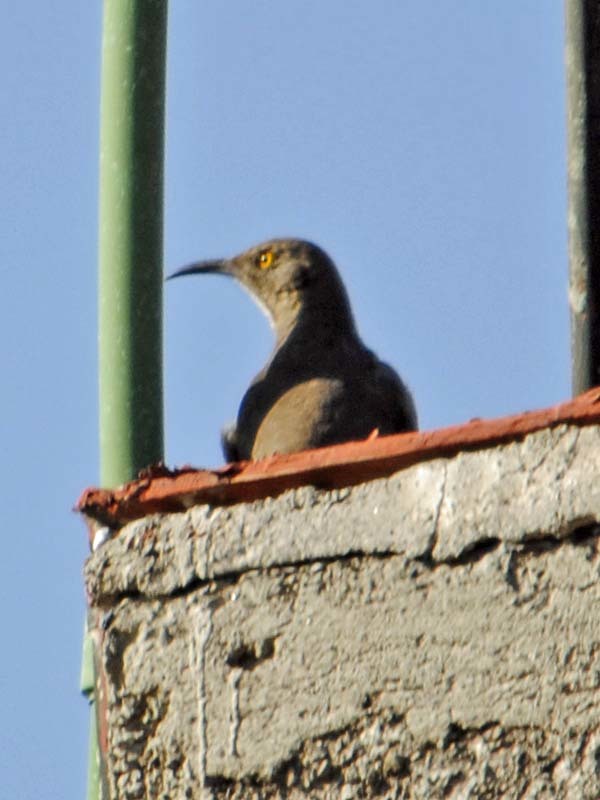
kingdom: Animalia
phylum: Chordata
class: Aves
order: Passeriformes
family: Mimidae
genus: Toxostoma
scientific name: Toxostoma curvirostre
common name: Curve-billed thrasher
